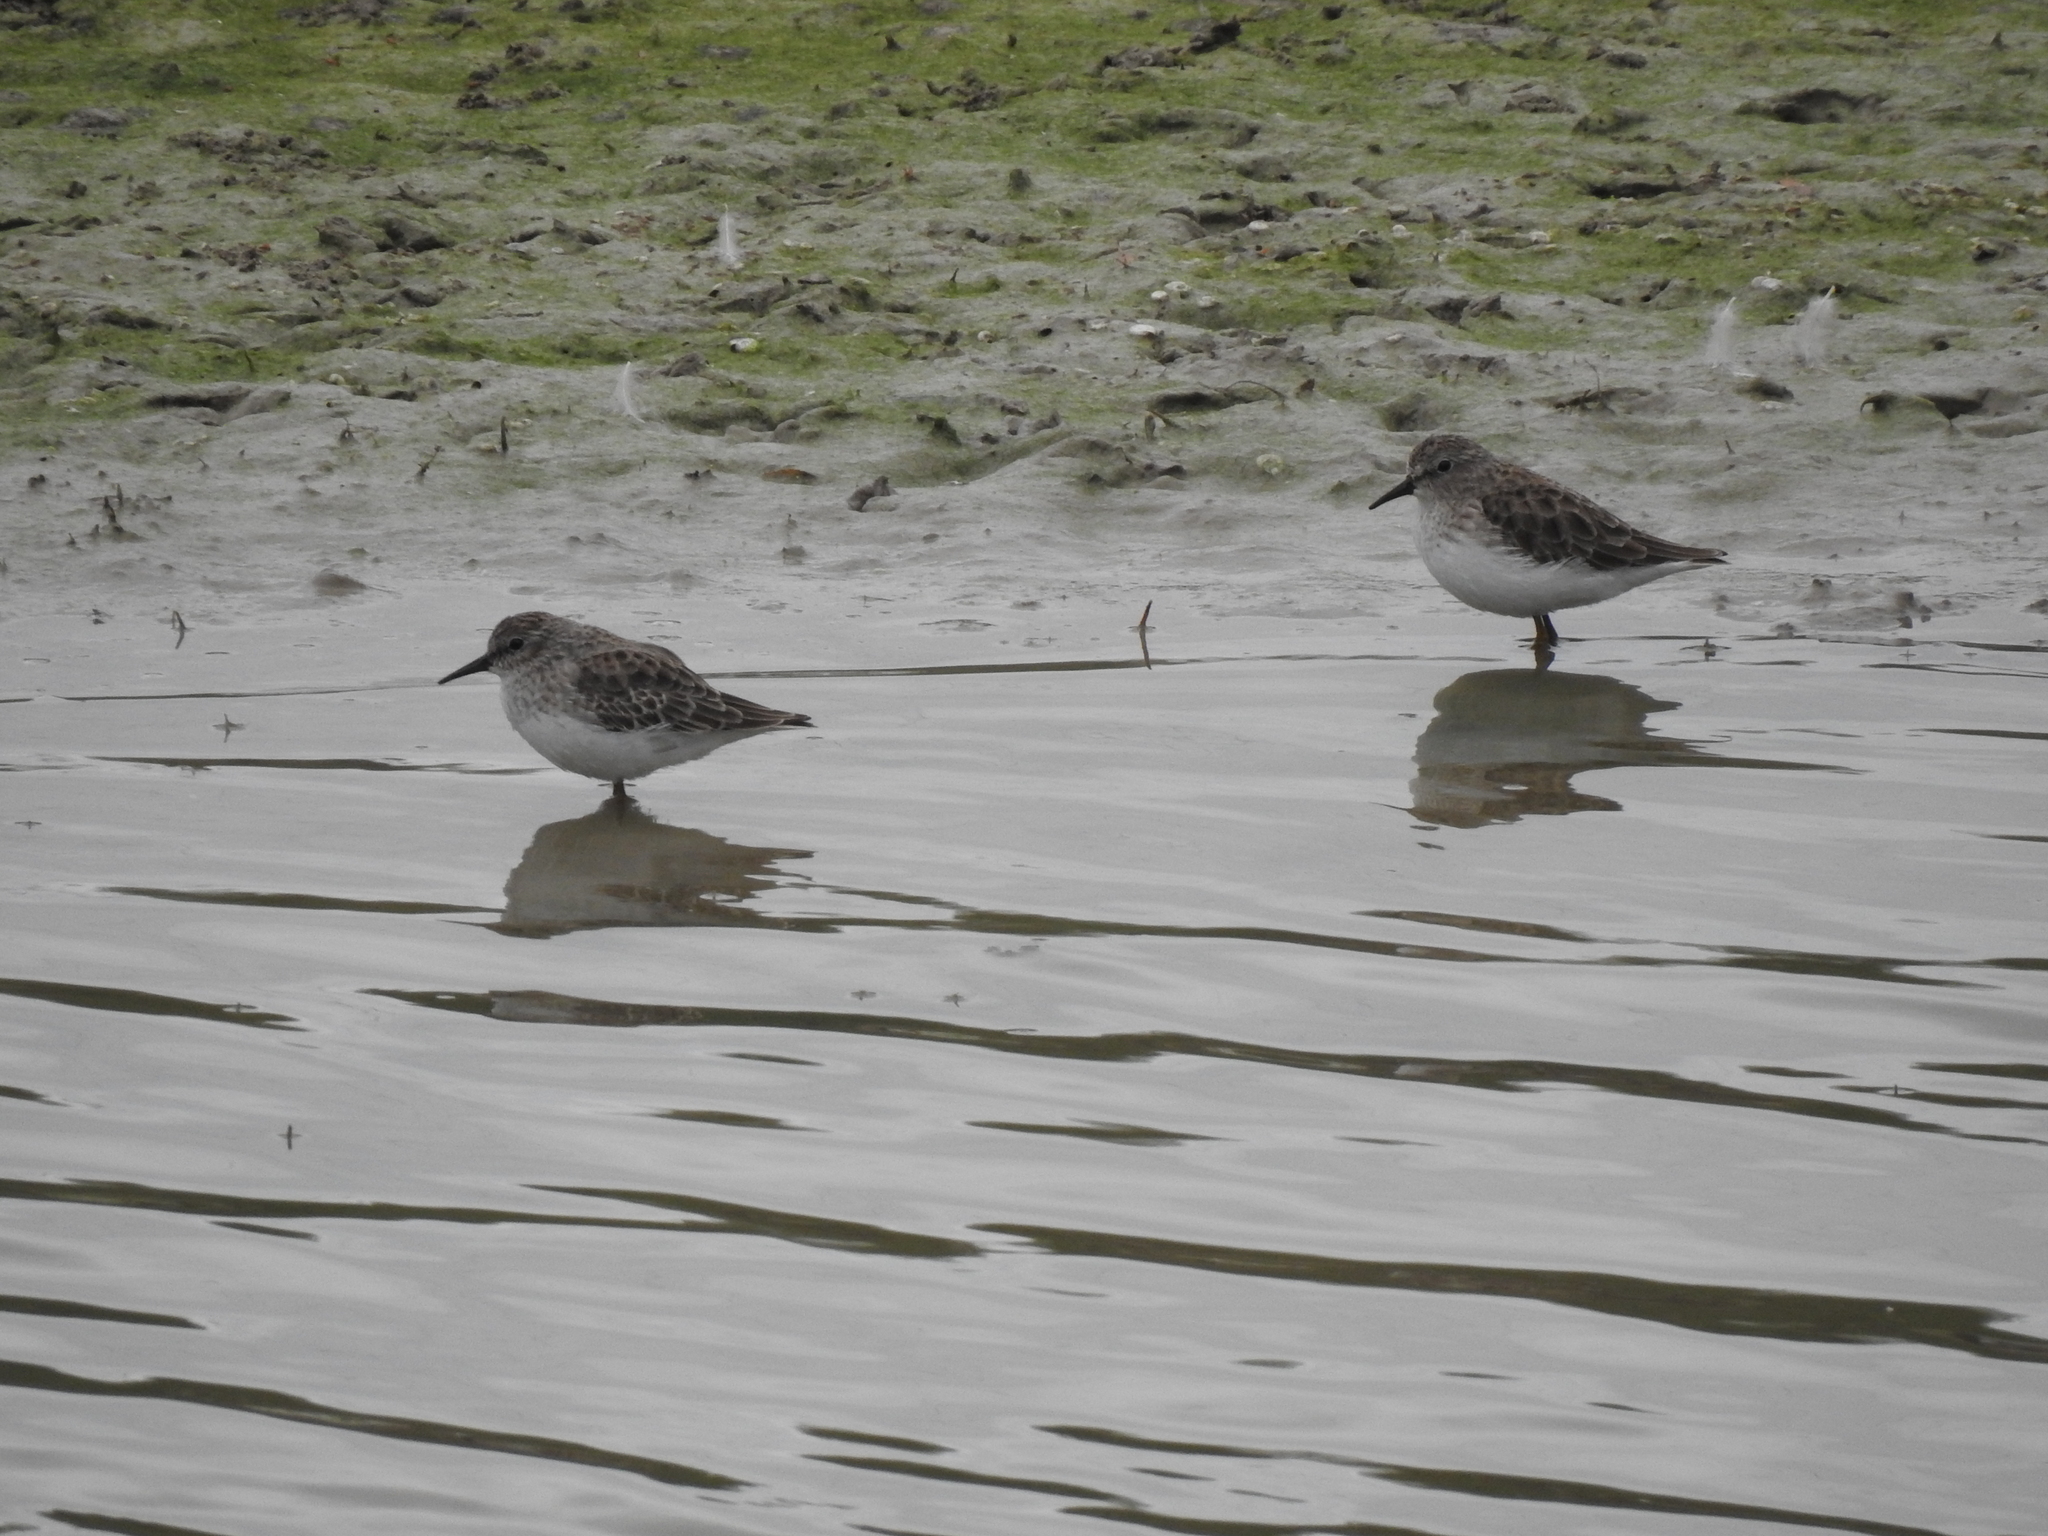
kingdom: Animalia
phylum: Chordata
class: Aves
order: Charadriiformes
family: Scolopacidae
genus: Calidris
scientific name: Calidris minutilla
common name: Least sandpiper
